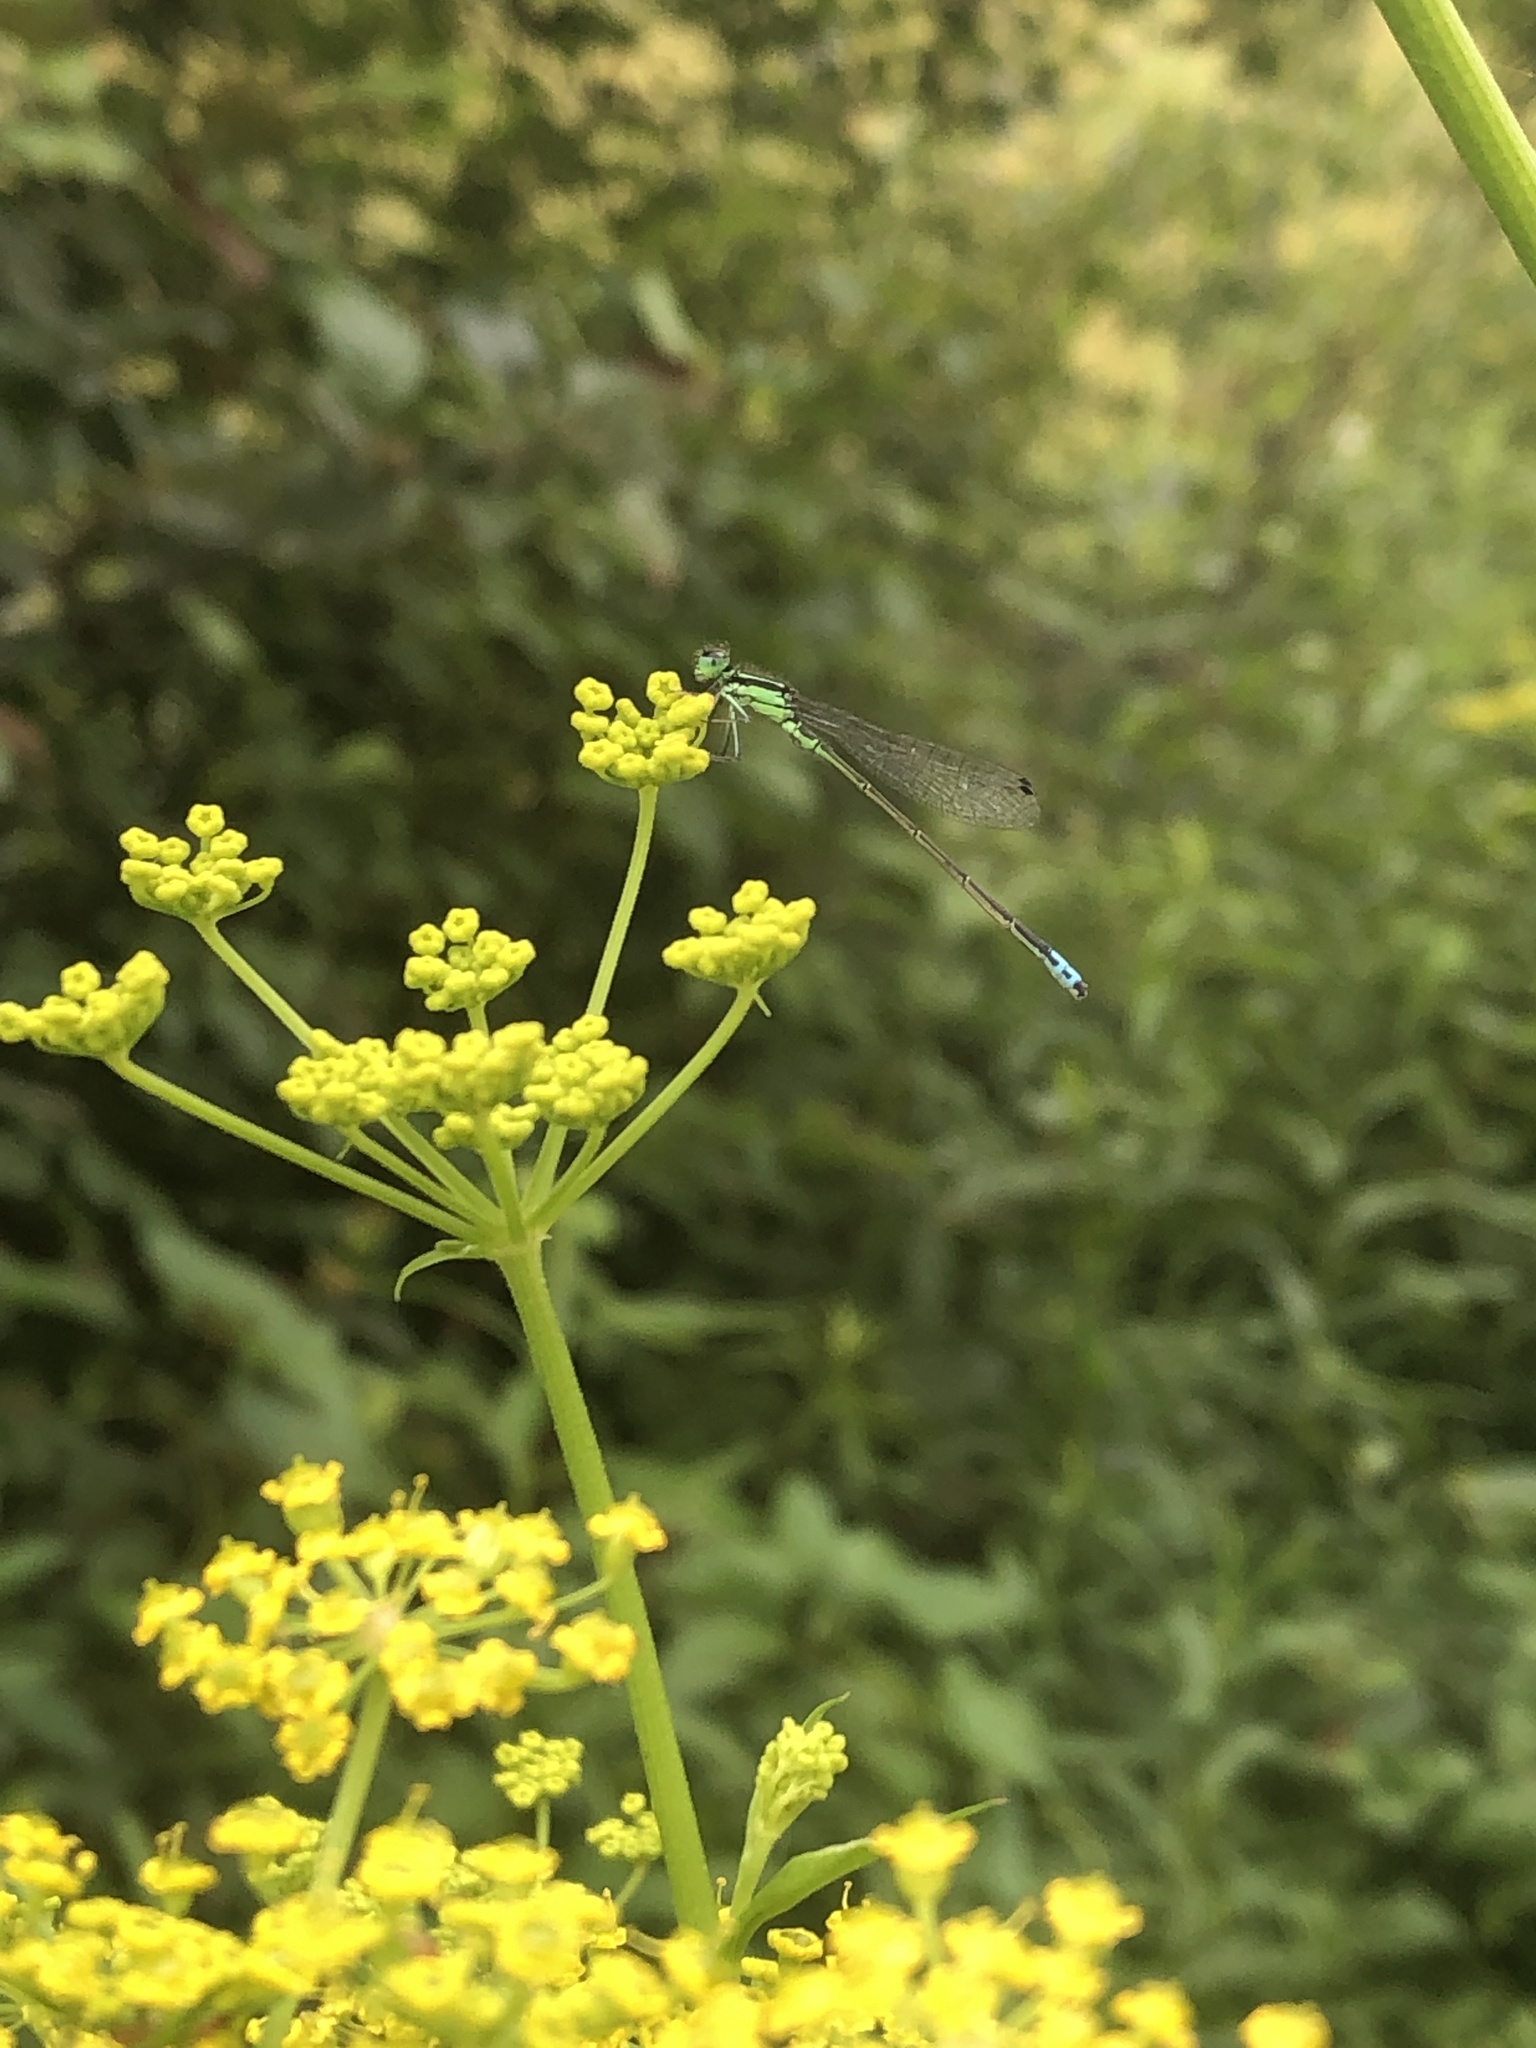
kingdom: Animalia
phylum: Arthropoda
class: Insecta
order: Odonata
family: Coenagrionidae
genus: Ischnura
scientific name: Ischnura verticalis
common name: Eastern forktail
